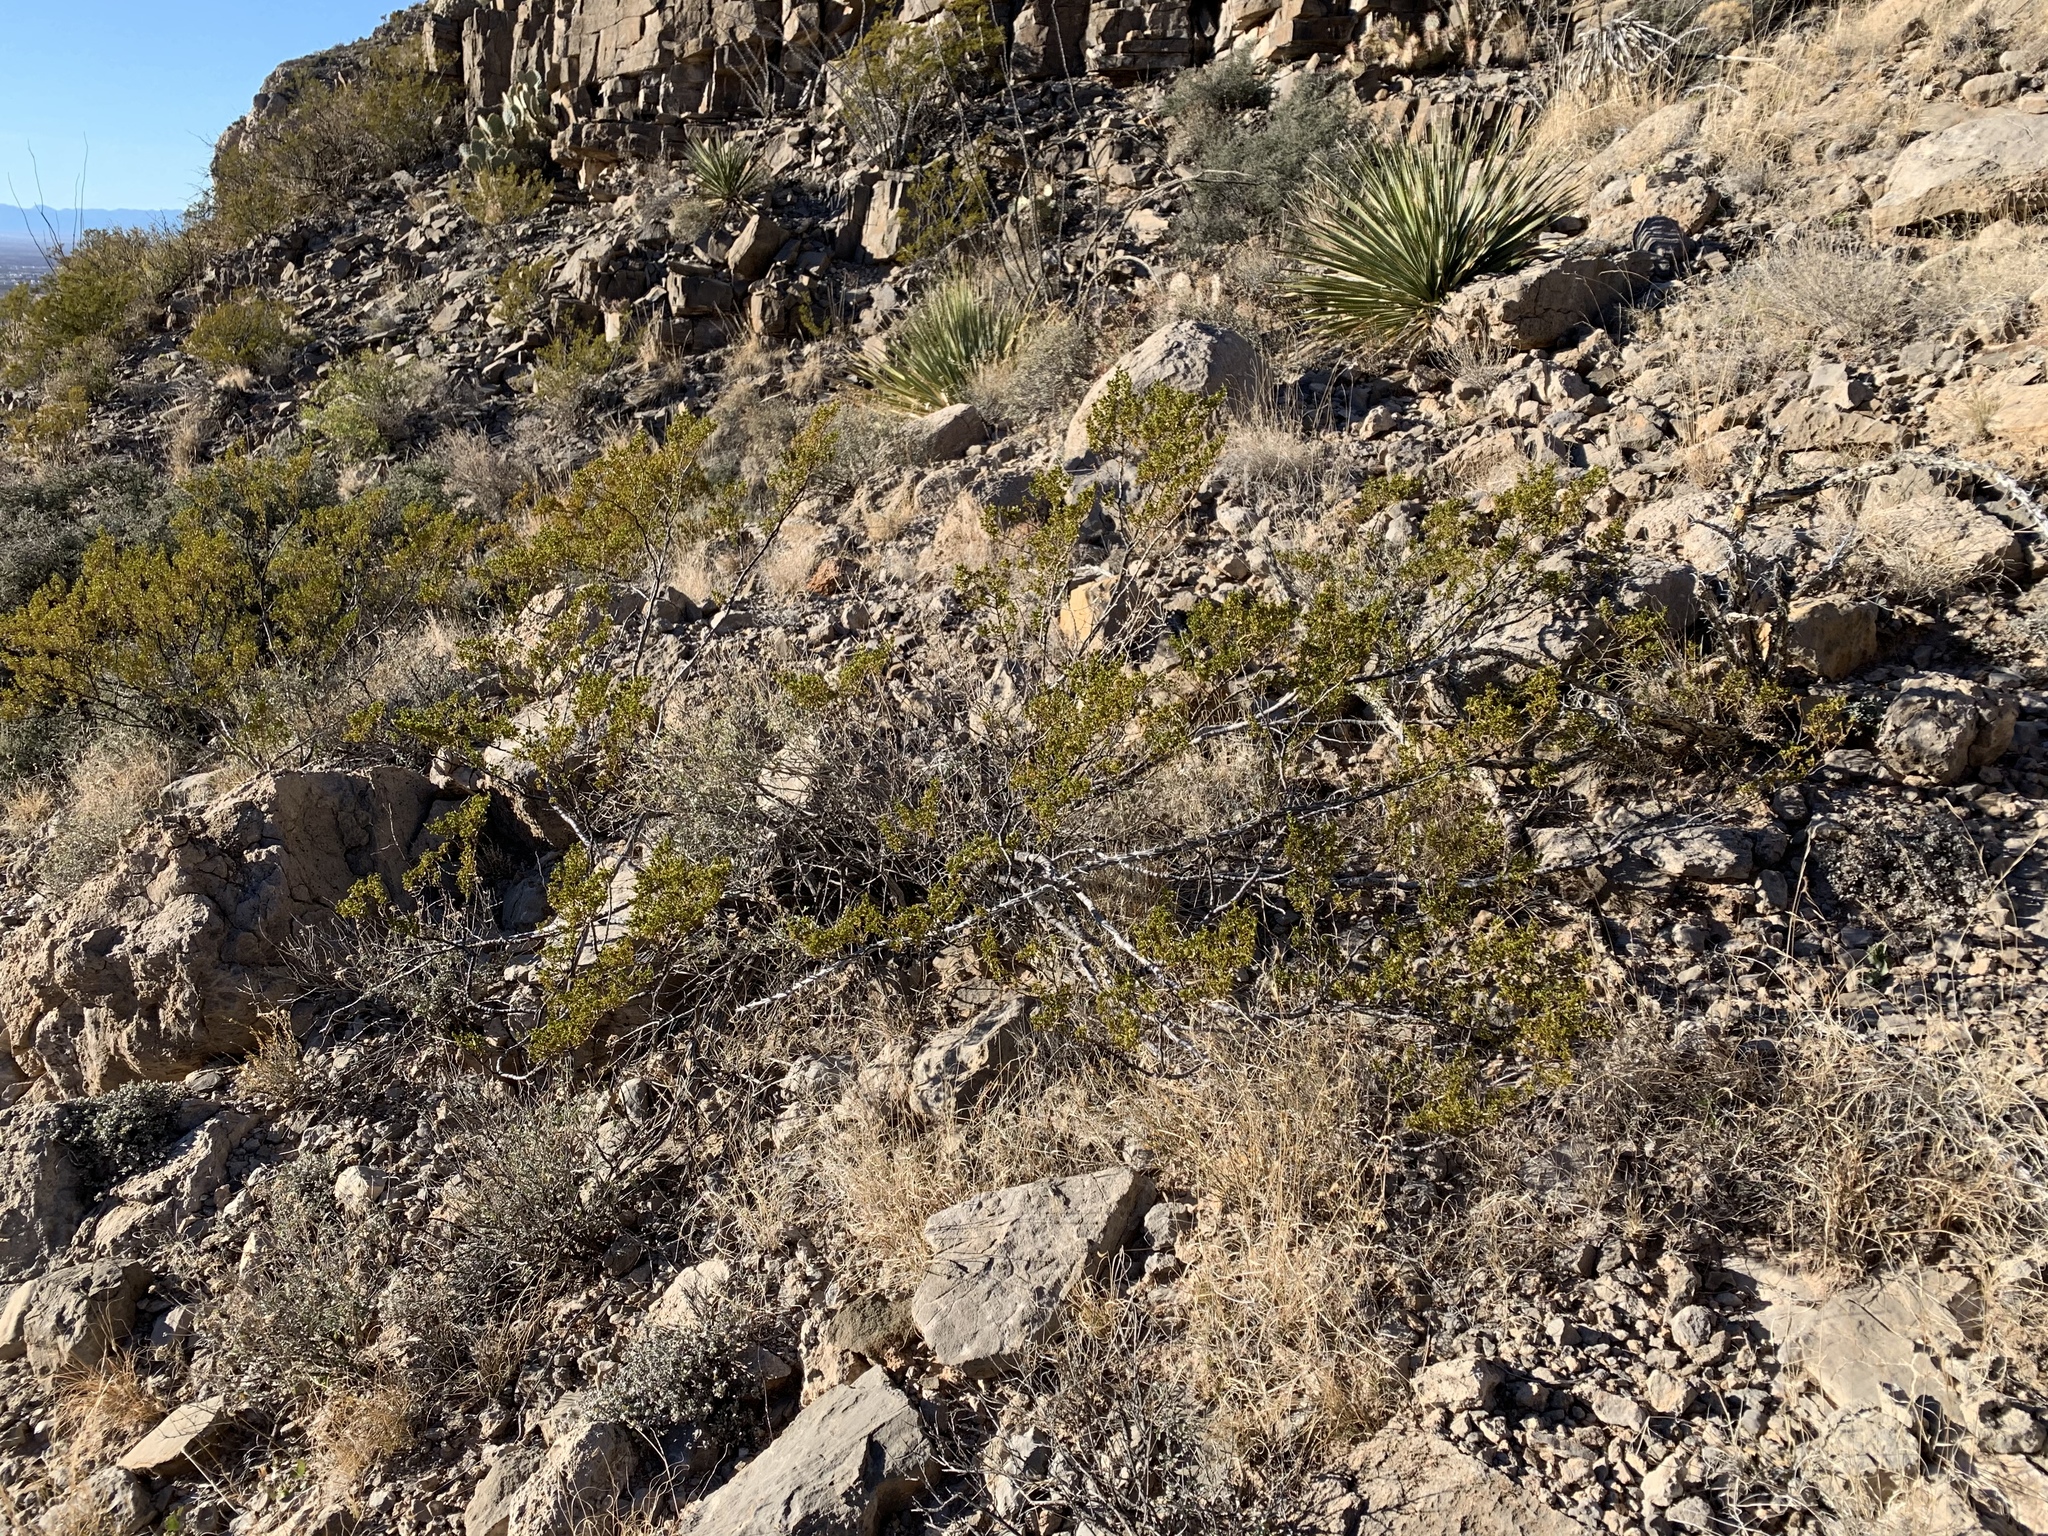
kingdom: Plantae
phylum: Tracheophyta
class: Magnoliopsida
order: Zygophyllales
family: Zygophyllaceae
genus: Larrea
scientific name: Larrea tridentata
